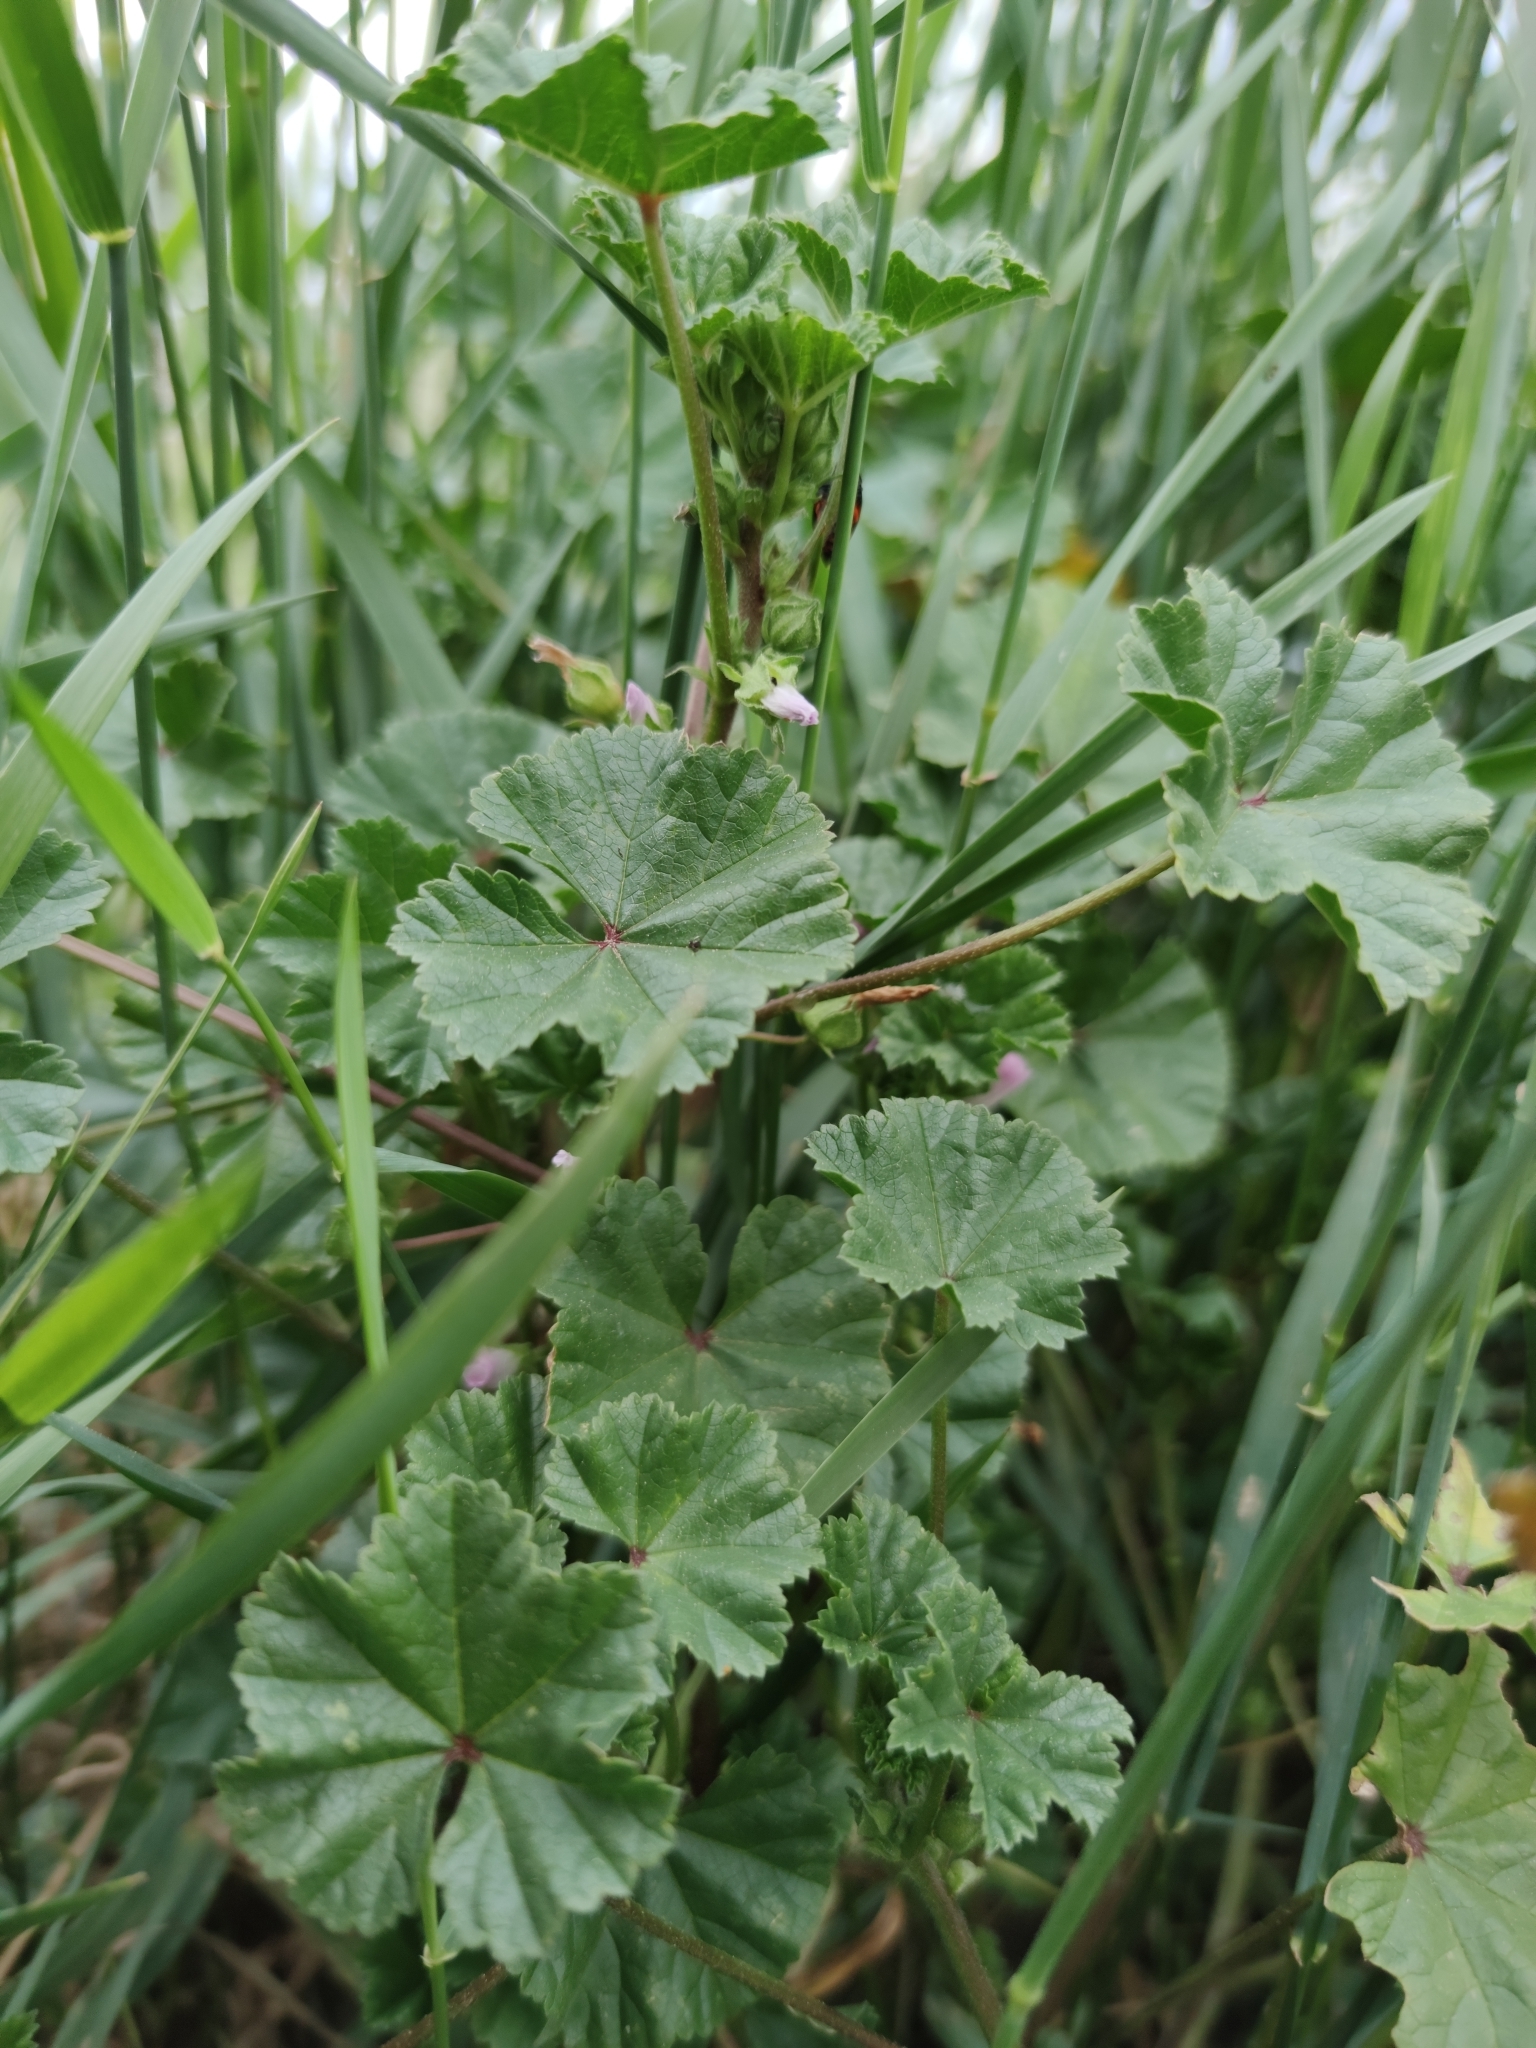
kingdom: Plantae
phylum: Tracheophyta
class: Magnoliopsida
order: Malvales
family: Malvaceae
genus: Malva
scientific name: Malva neglecta
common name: Common mallow
